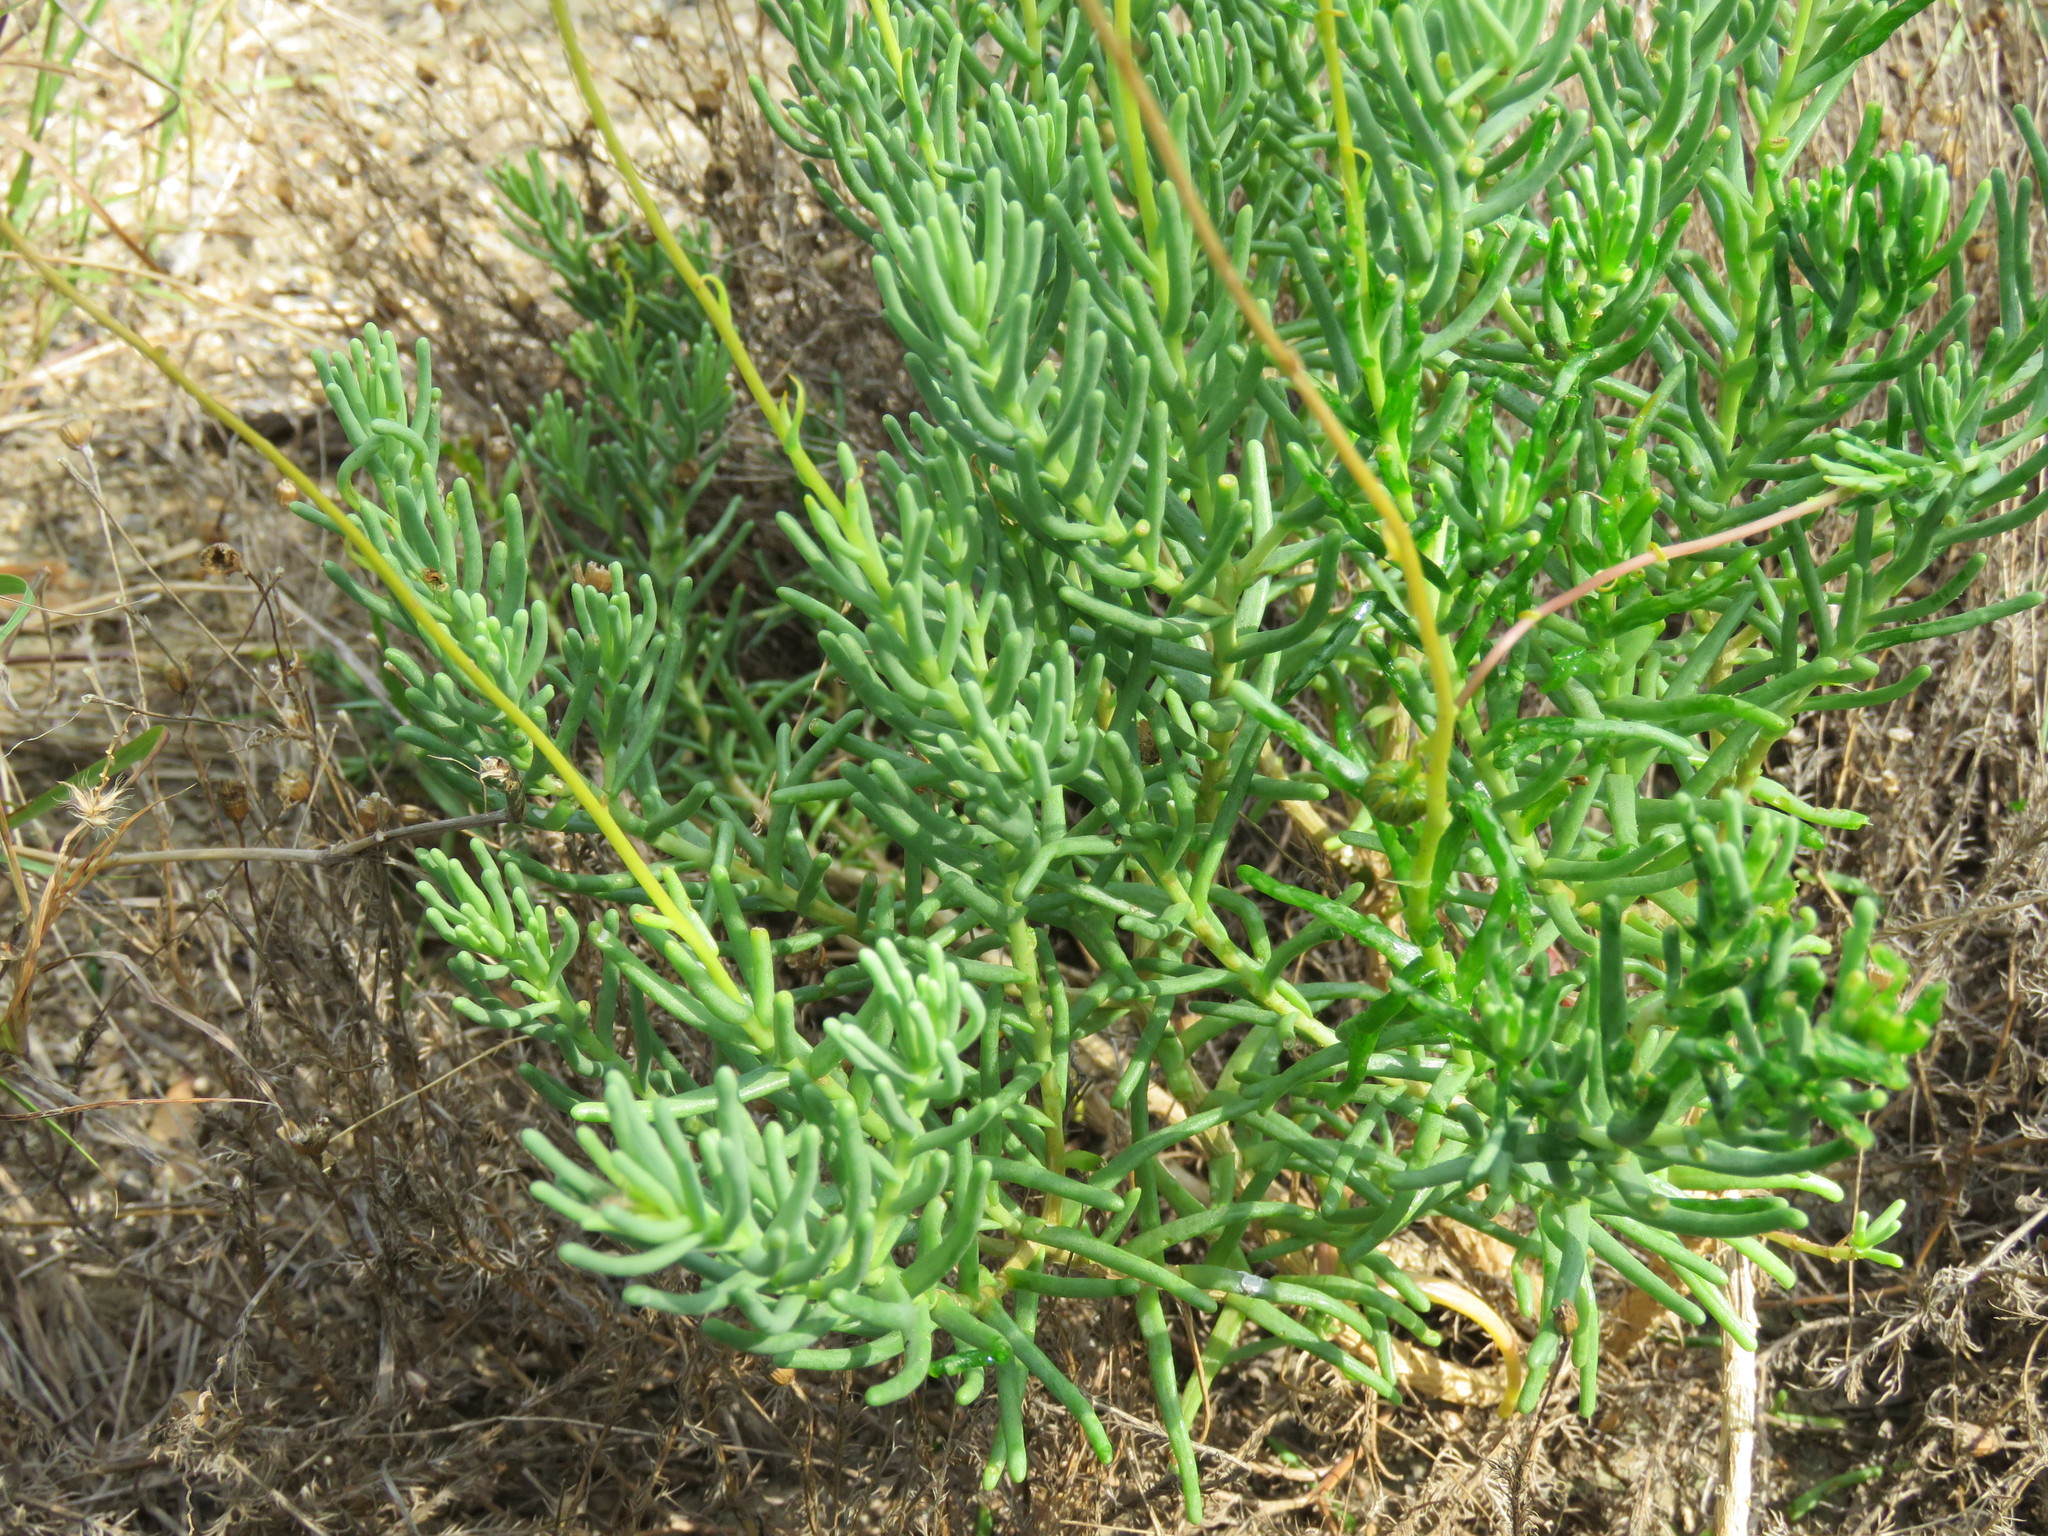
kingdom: Plantae
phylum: Tracheophyta
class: Magnoliopsida
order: Asterales
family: Asteraceae
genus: Clappia
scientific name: Clappia suaedifolia
